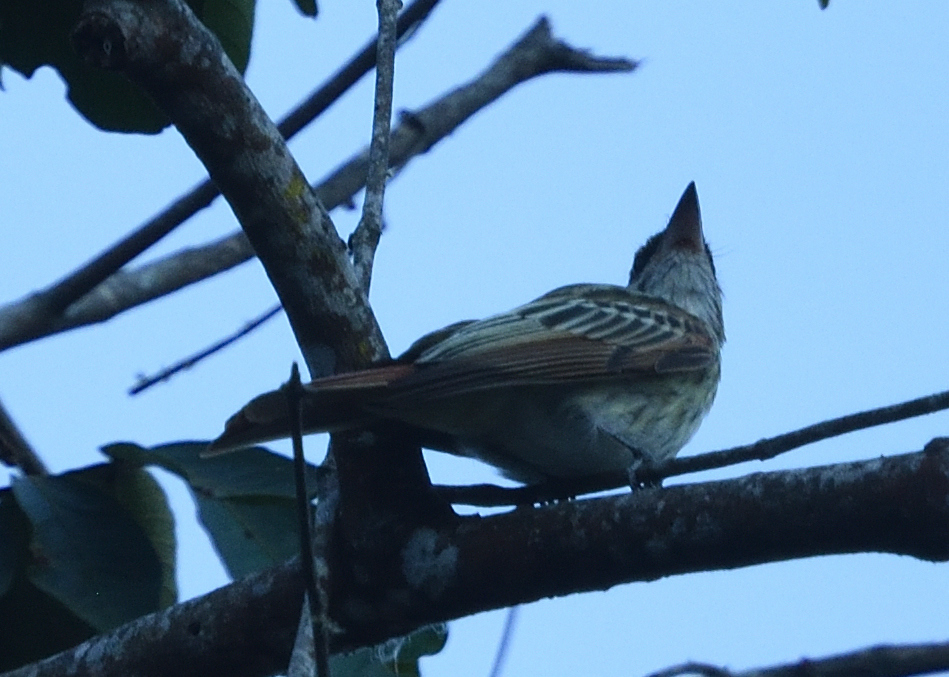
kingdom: Animalia
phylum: Chordata
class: Aves
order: Passeriformes
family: Tyrannidae
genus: Myiodynastes
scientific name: Myiodynastes maculatus
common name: Streaked flycatcher
